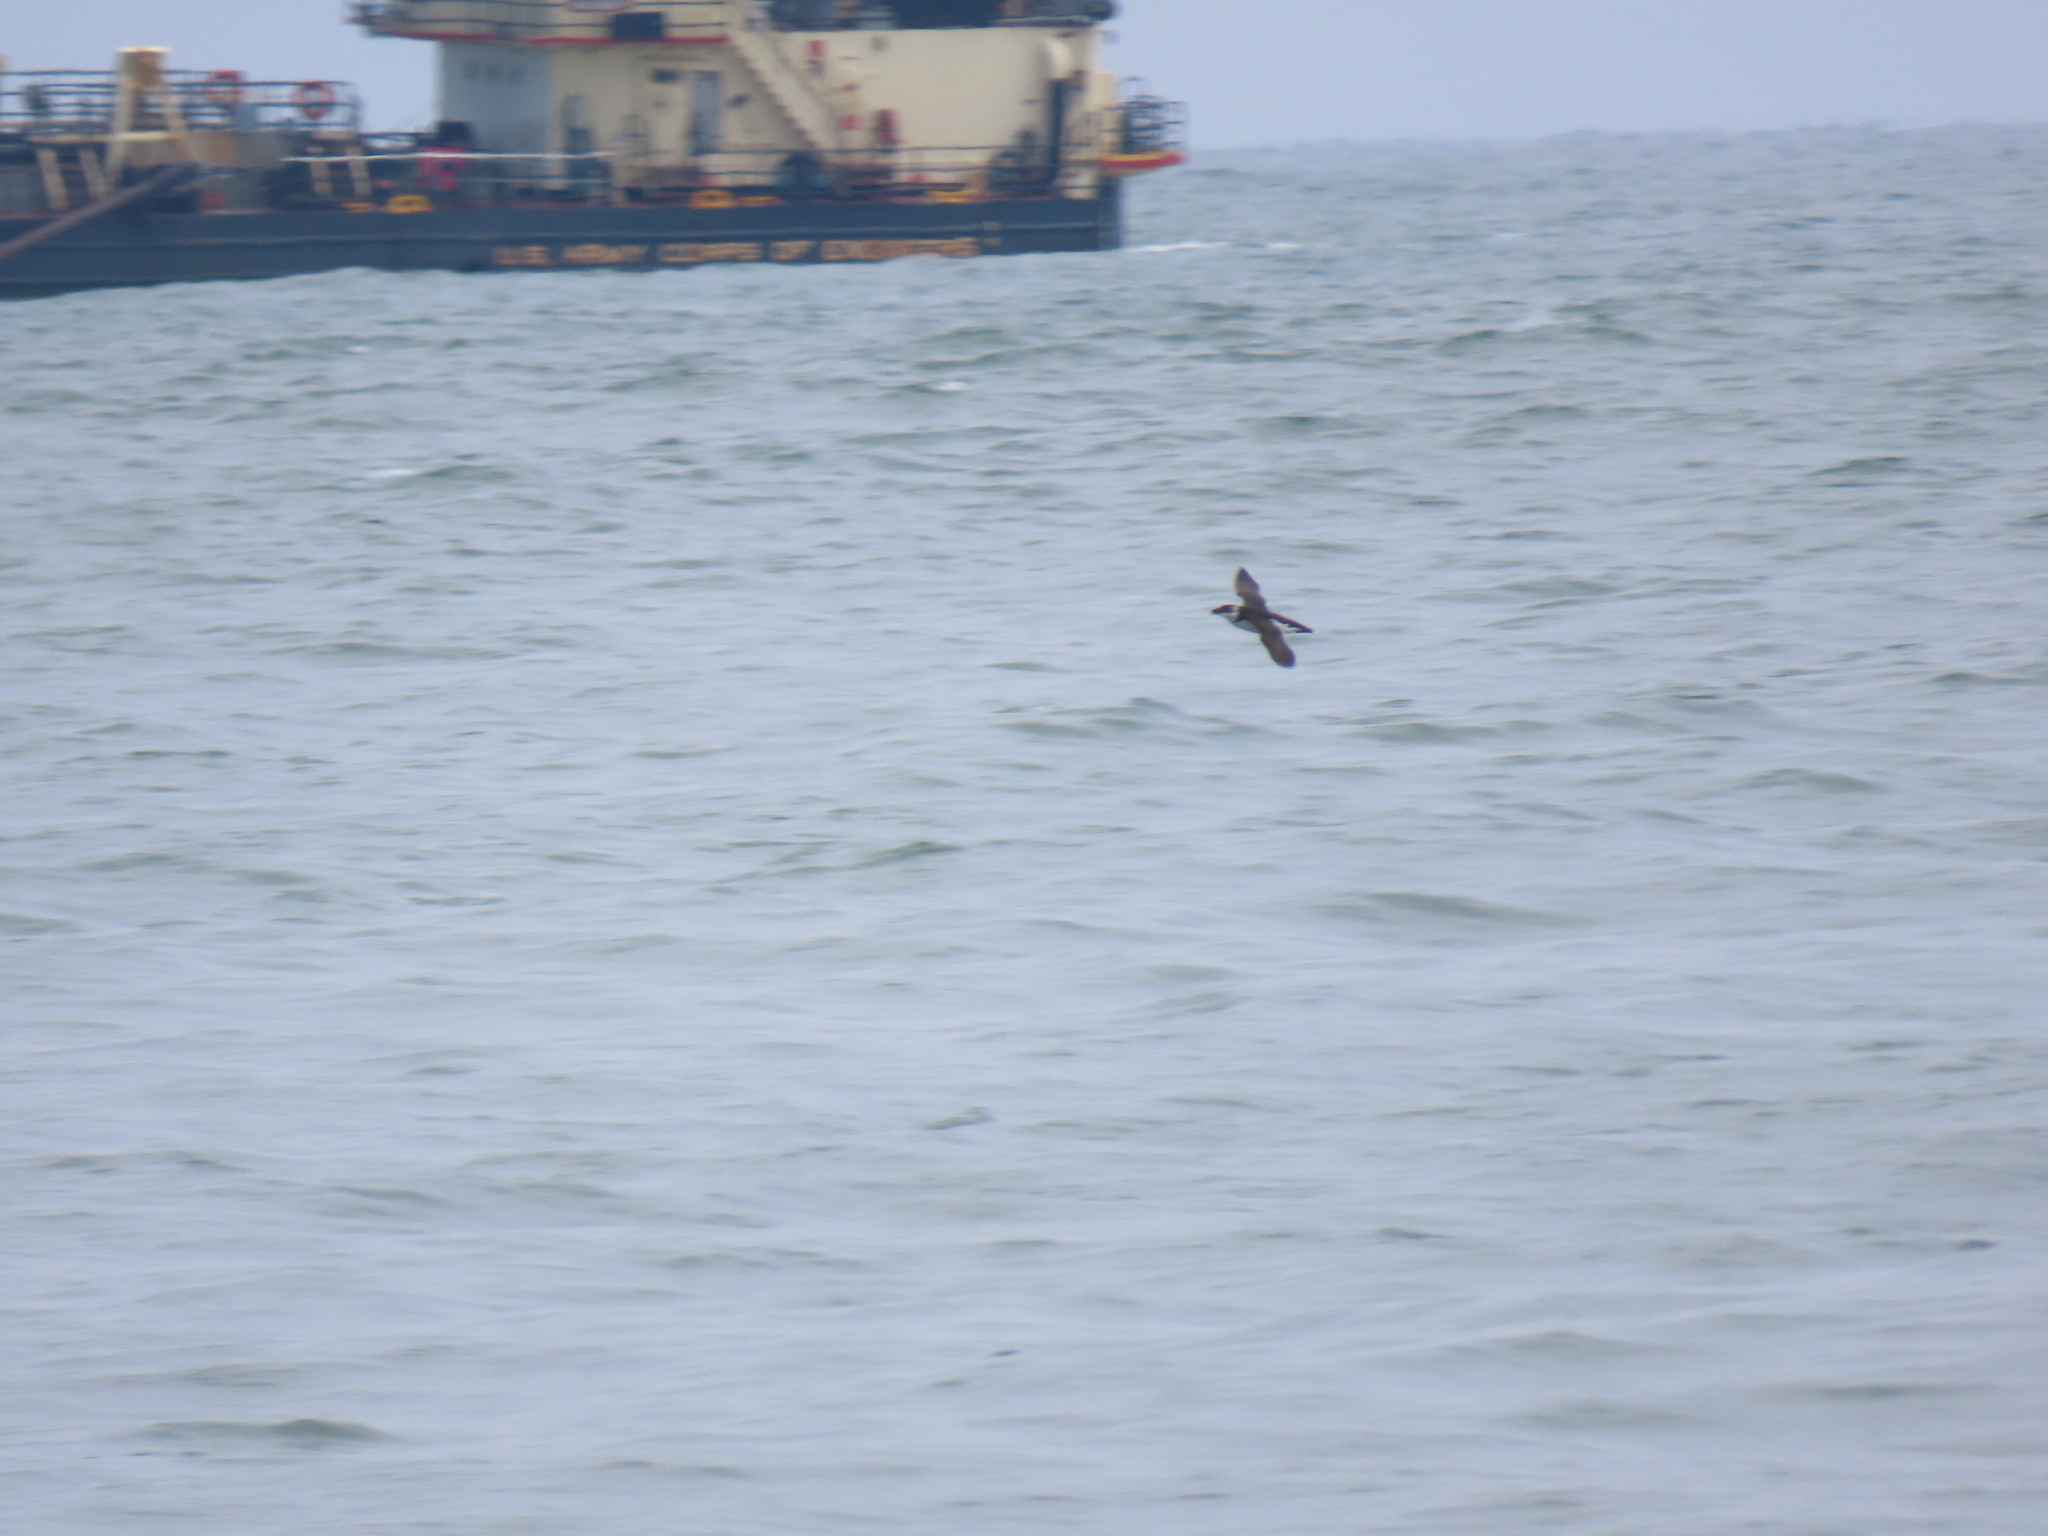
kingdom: Animalia
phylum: Chordata
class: Aves
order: Charadriiformes
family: Alcidae
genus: Alca
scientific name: Alca torda
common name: Razorbill
